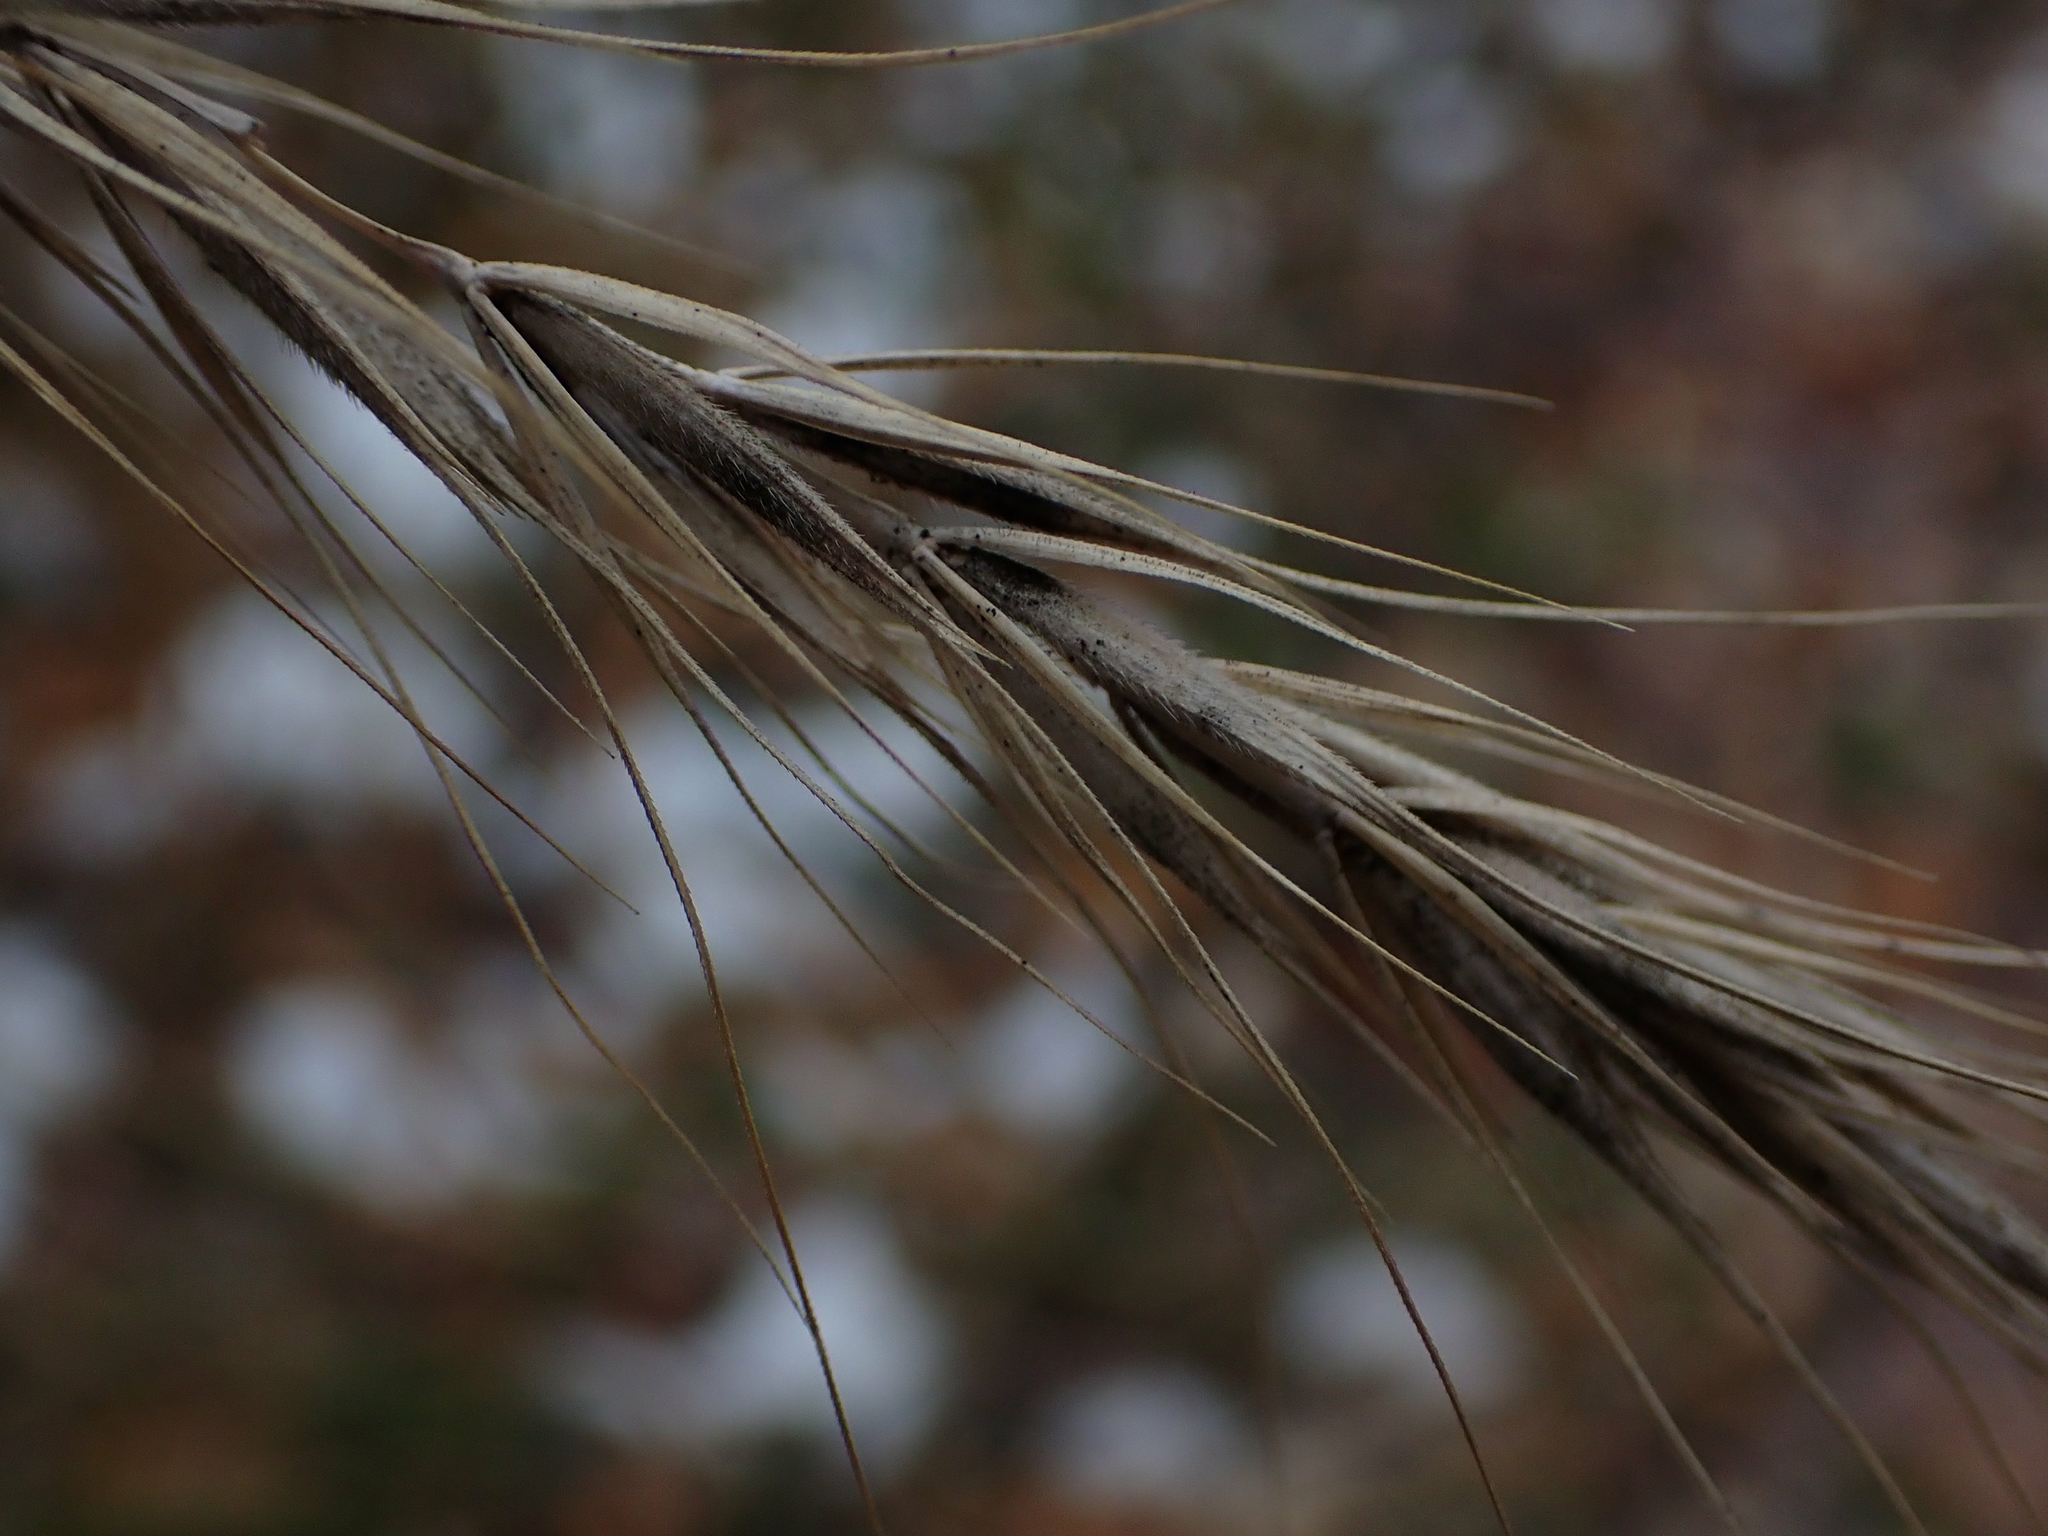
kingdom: Plantae
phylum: Tracheophyta
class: Liliopsida
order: Poales
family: Poaceae
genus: Elymus
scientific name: Elymus canadensis
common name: Canada wild rye
